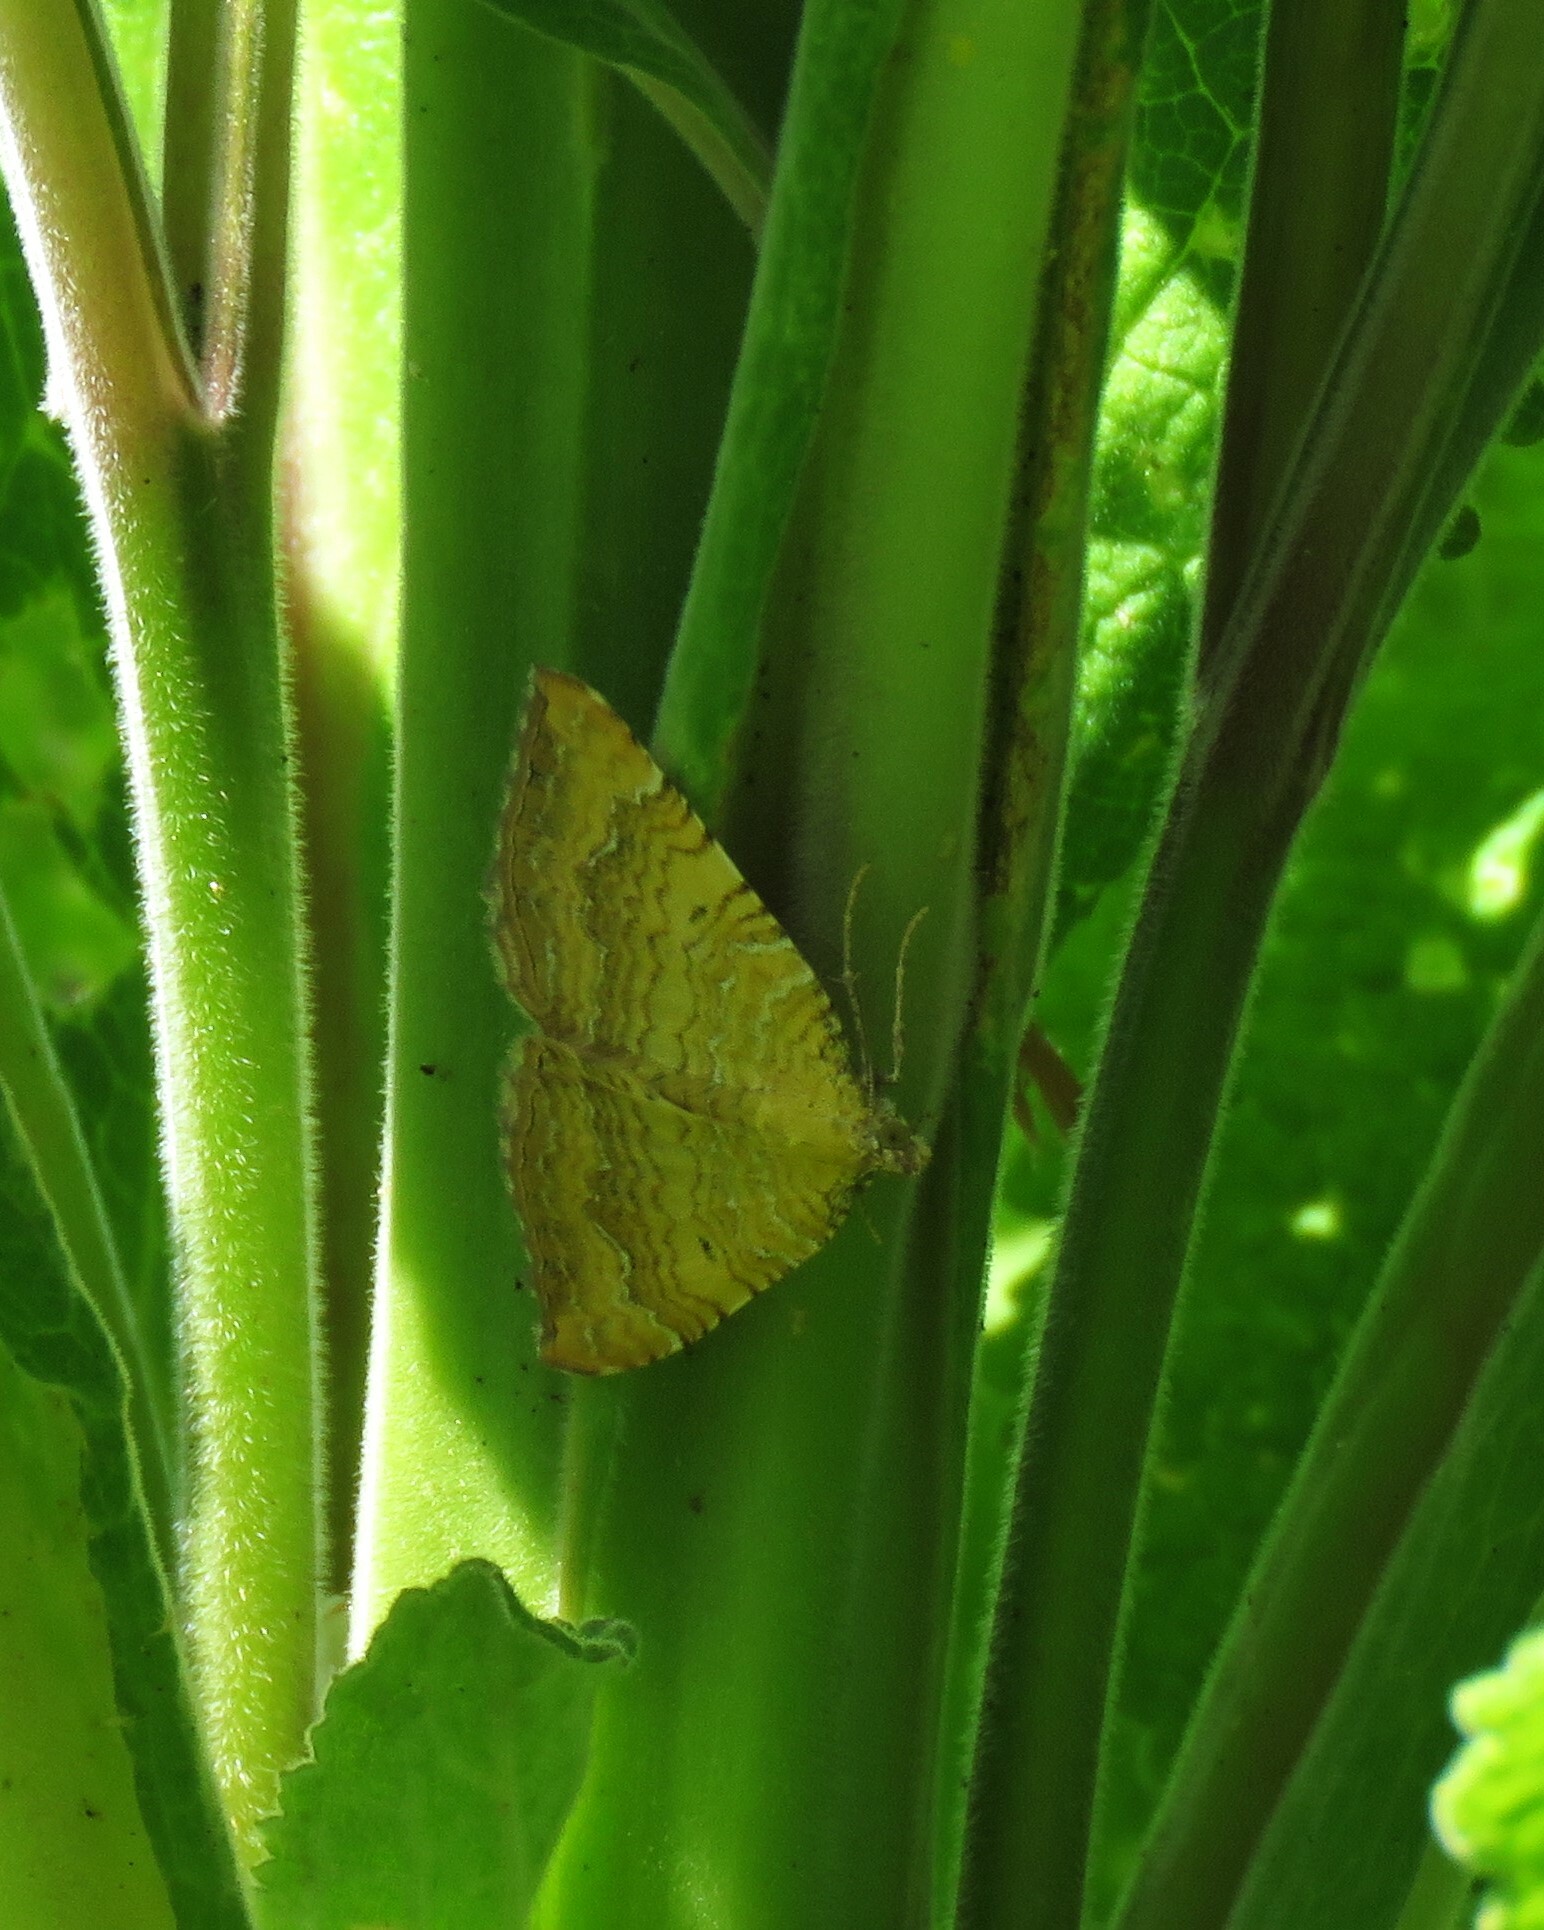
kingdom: Animalia
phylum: Arthropoda
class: Insecta
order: Lepidoptera
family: Geometridae
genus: Camptogramma
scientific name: Camptogramma bilineata
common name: Yellow shell
